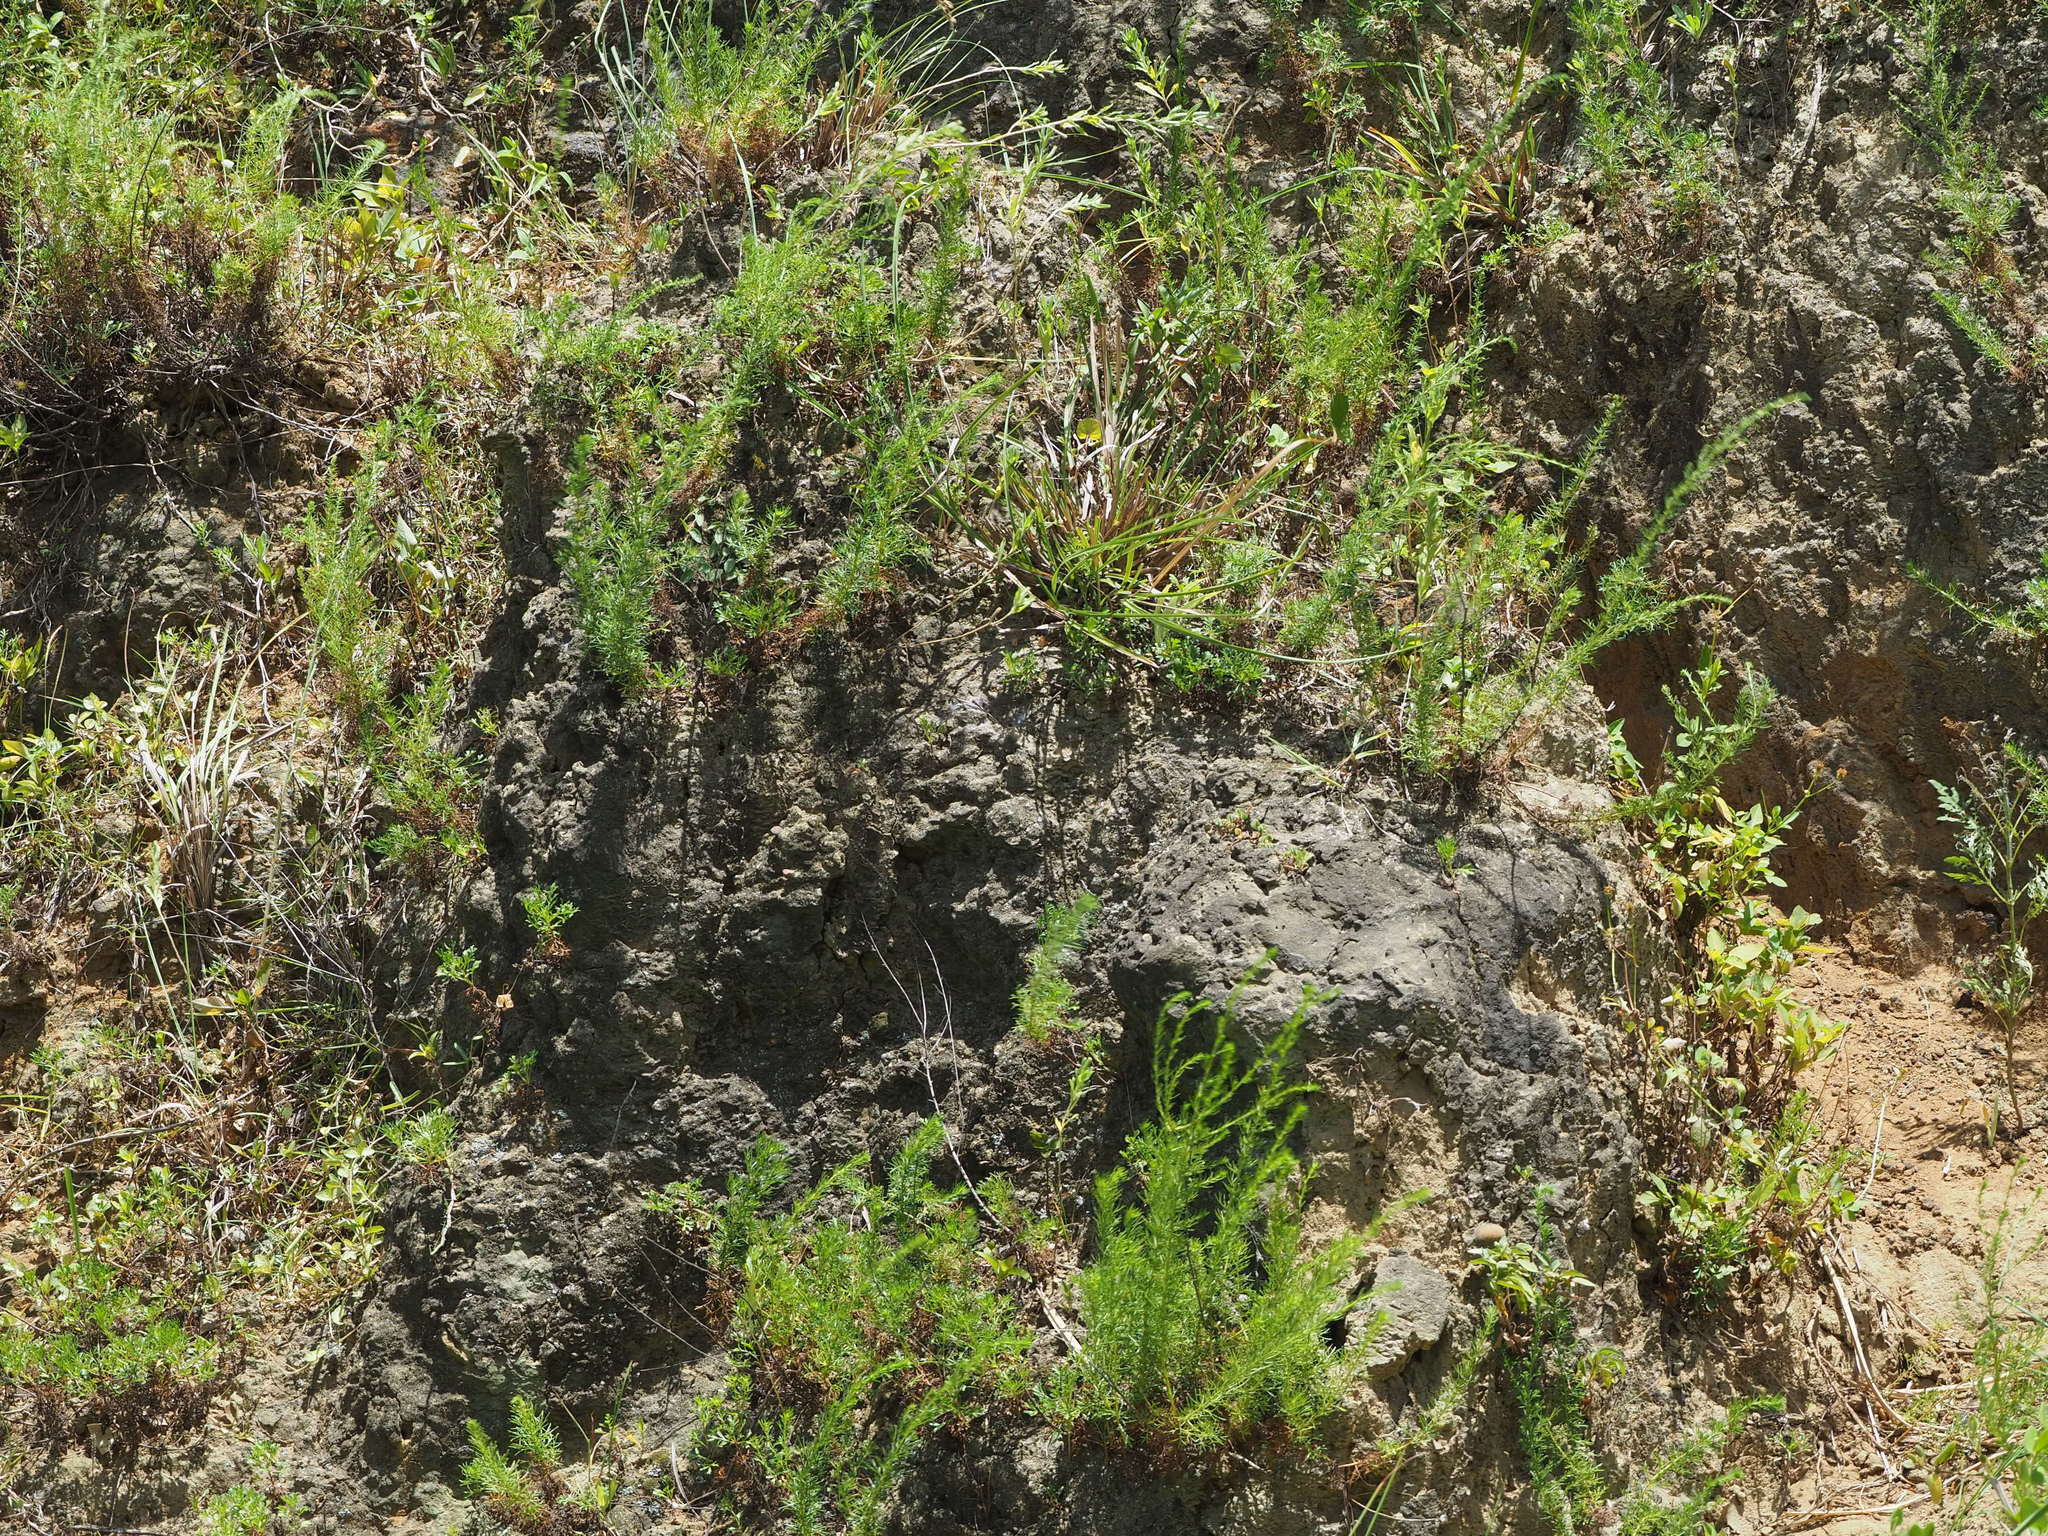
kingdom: Plantae
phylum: Tracheophyta
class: Magnoliopsida
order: Asterales
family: Asteraceae
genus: Artemisia
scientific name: Artemisia capillaris
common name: Yin-chen wormwood
